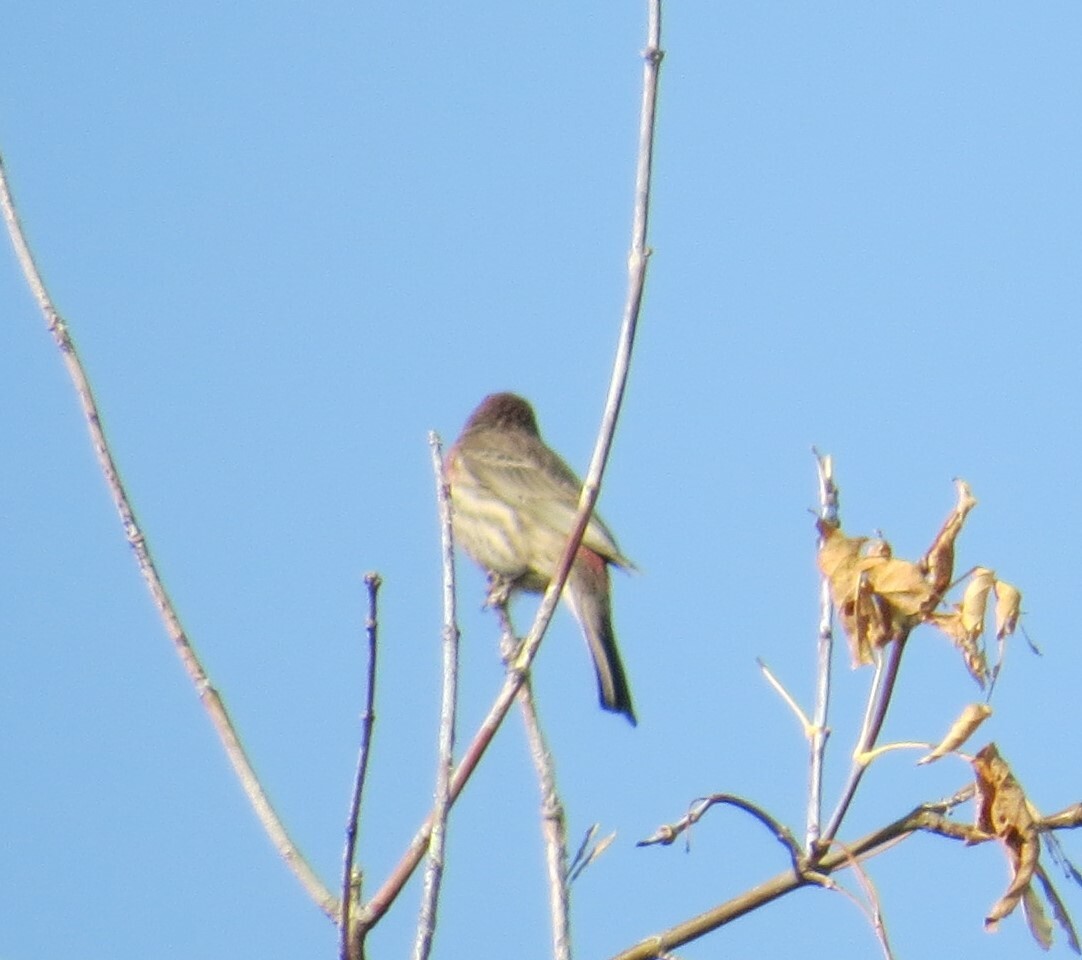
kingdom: Animalia
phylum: Chordata
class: Aves
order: Passeriformes
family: Fringillidae
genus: Haemorhous
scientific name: Haemorhous mexicanus
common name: House finch
